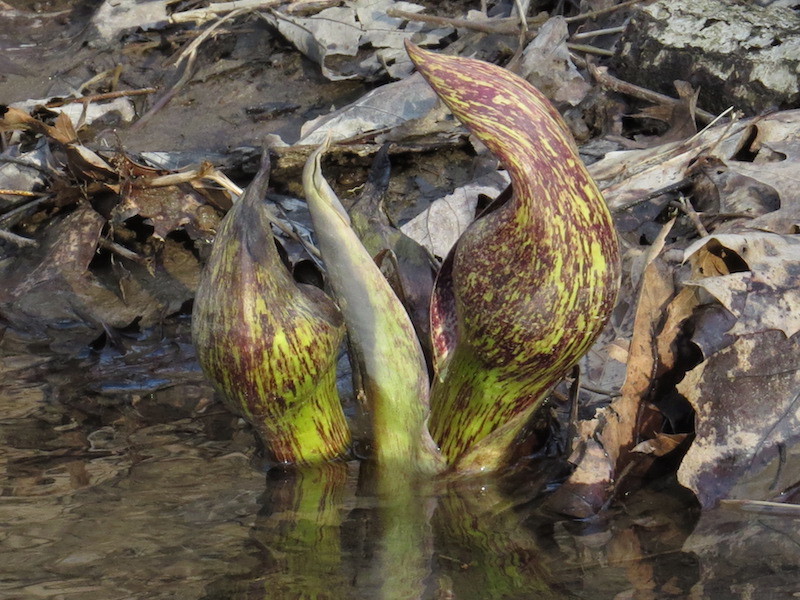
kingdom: Plantae
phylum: Tracheophyta
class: Liliopsida
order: Alismatales
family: Araceae
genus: Symplocarpus
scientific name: Symplocarpus foetidus
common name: Eastern skunk cabbage
